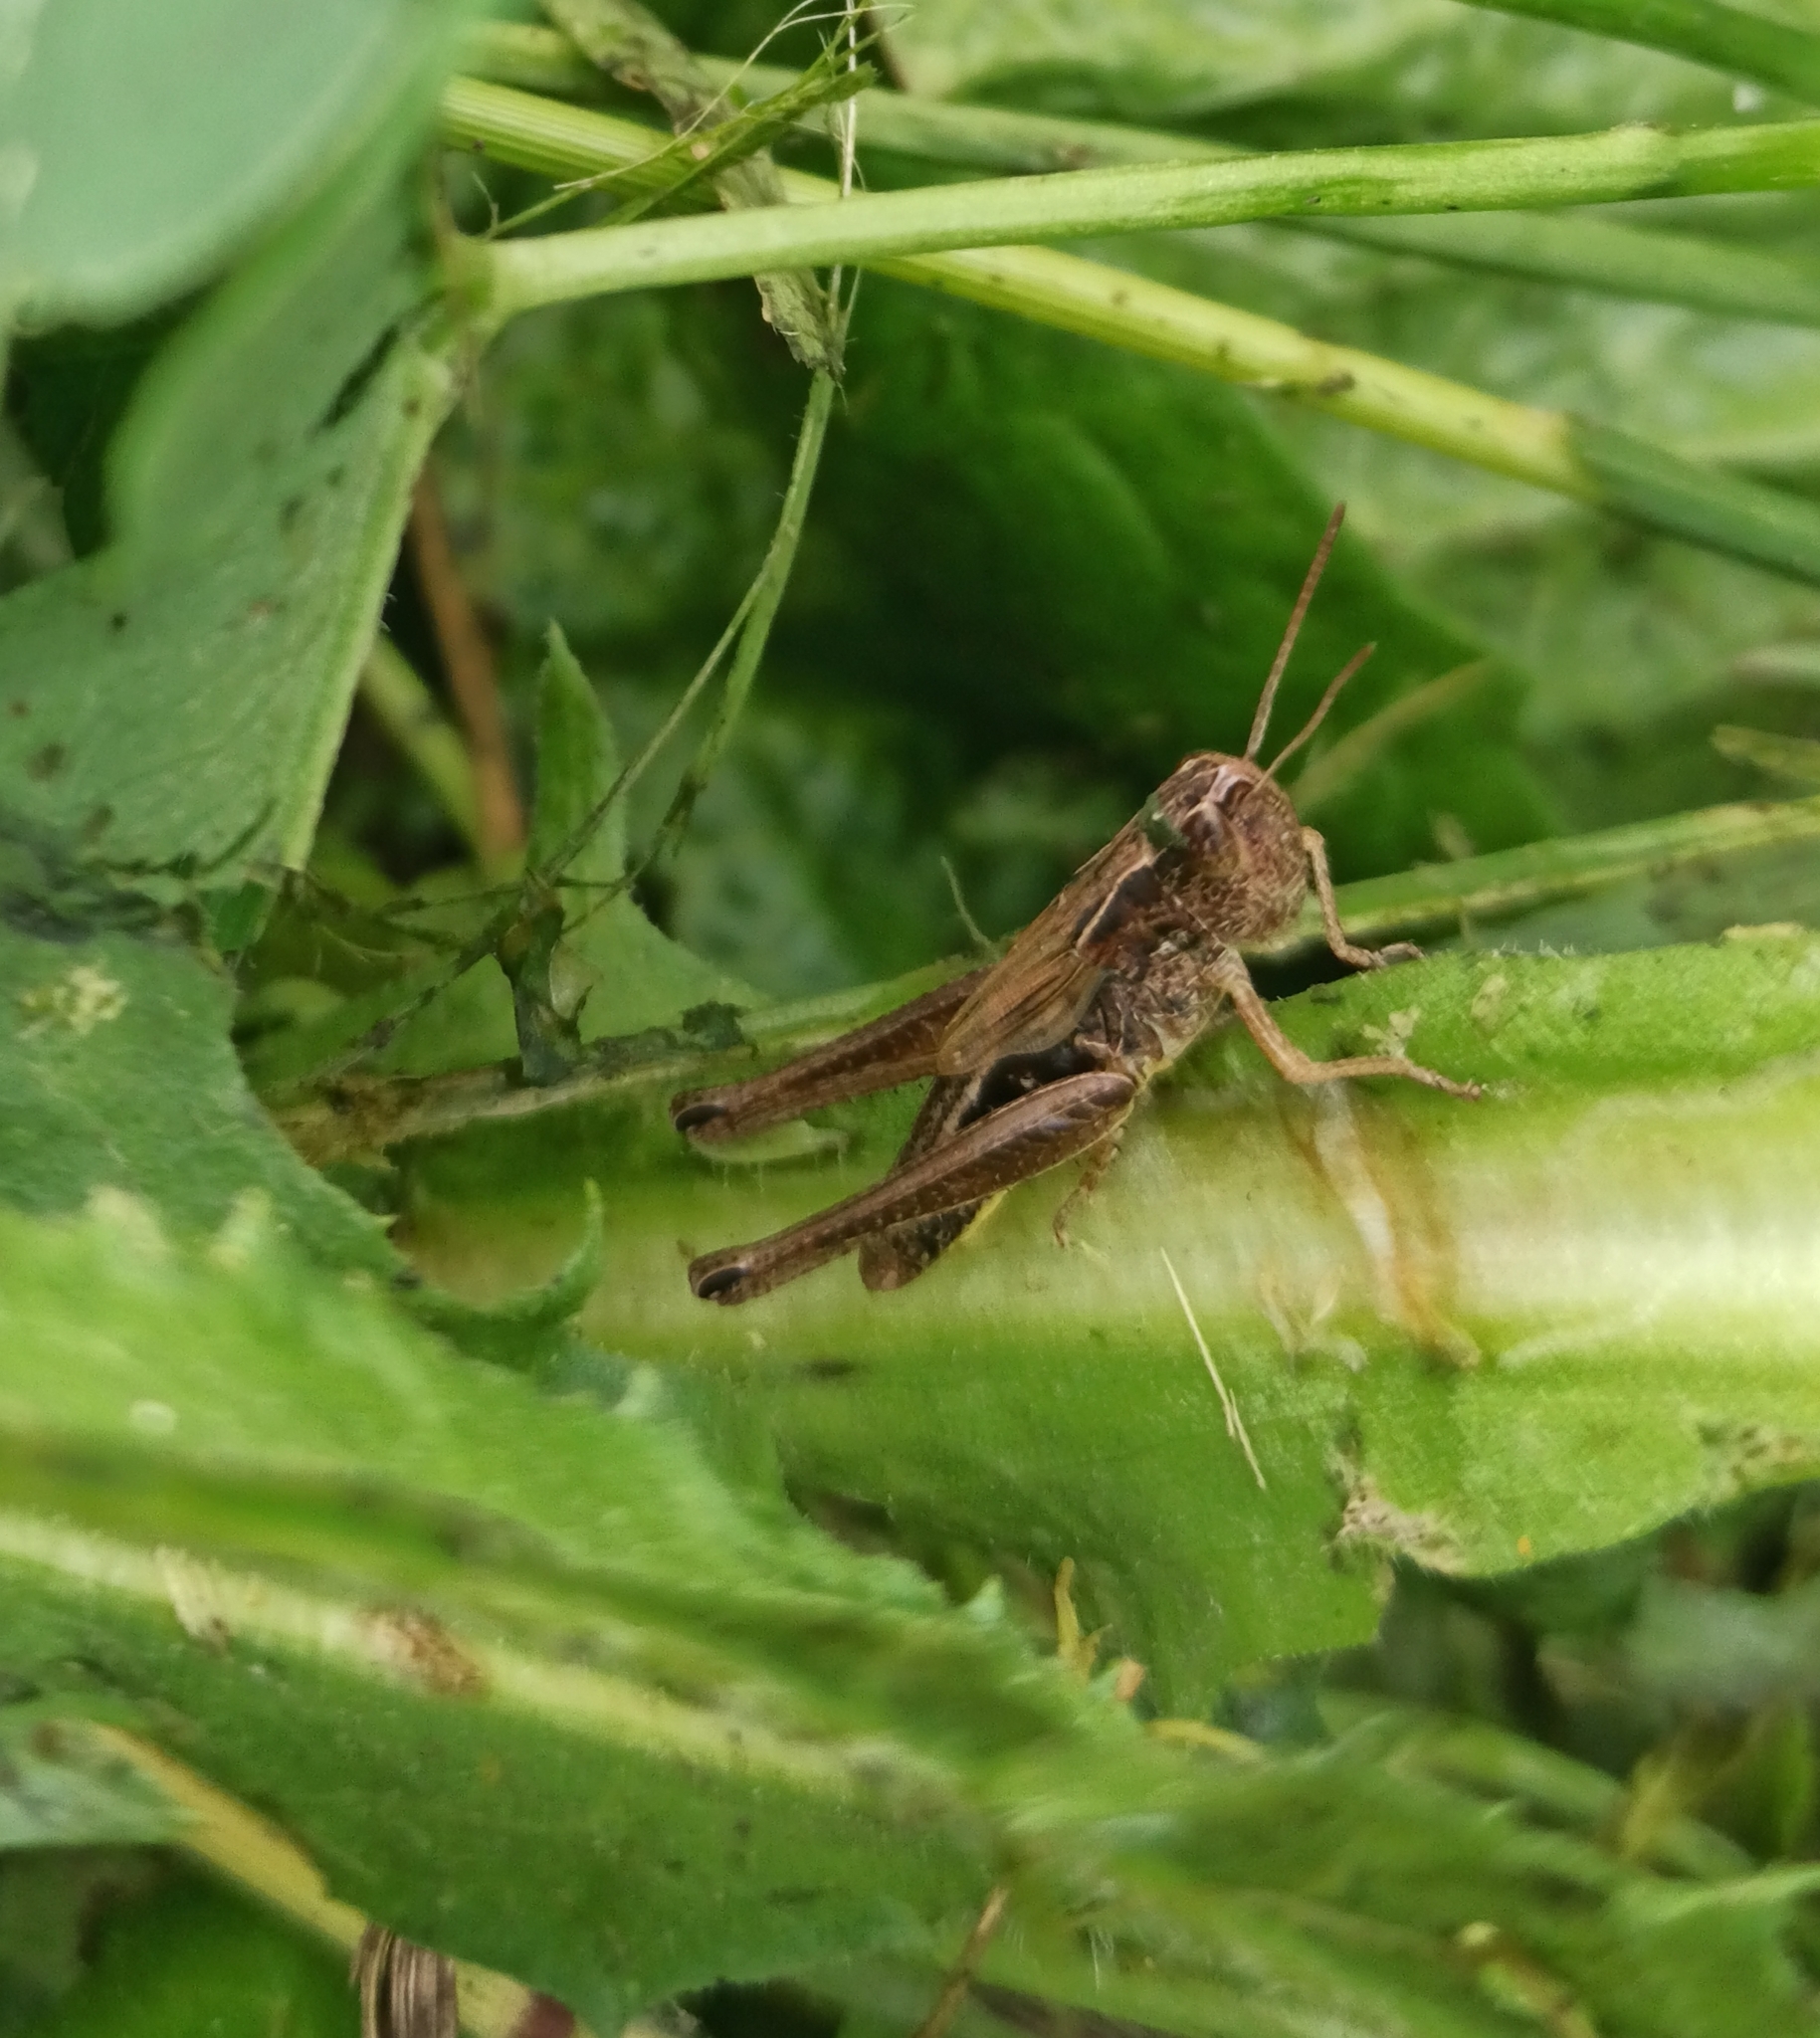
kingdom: Animalia
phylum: Arthropoda
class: Insecta
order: Orthoptera
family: Acrididae
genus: Pseudochorthippus
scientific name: Pseudochorthippus parallelus
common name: Meadow grasshopper
